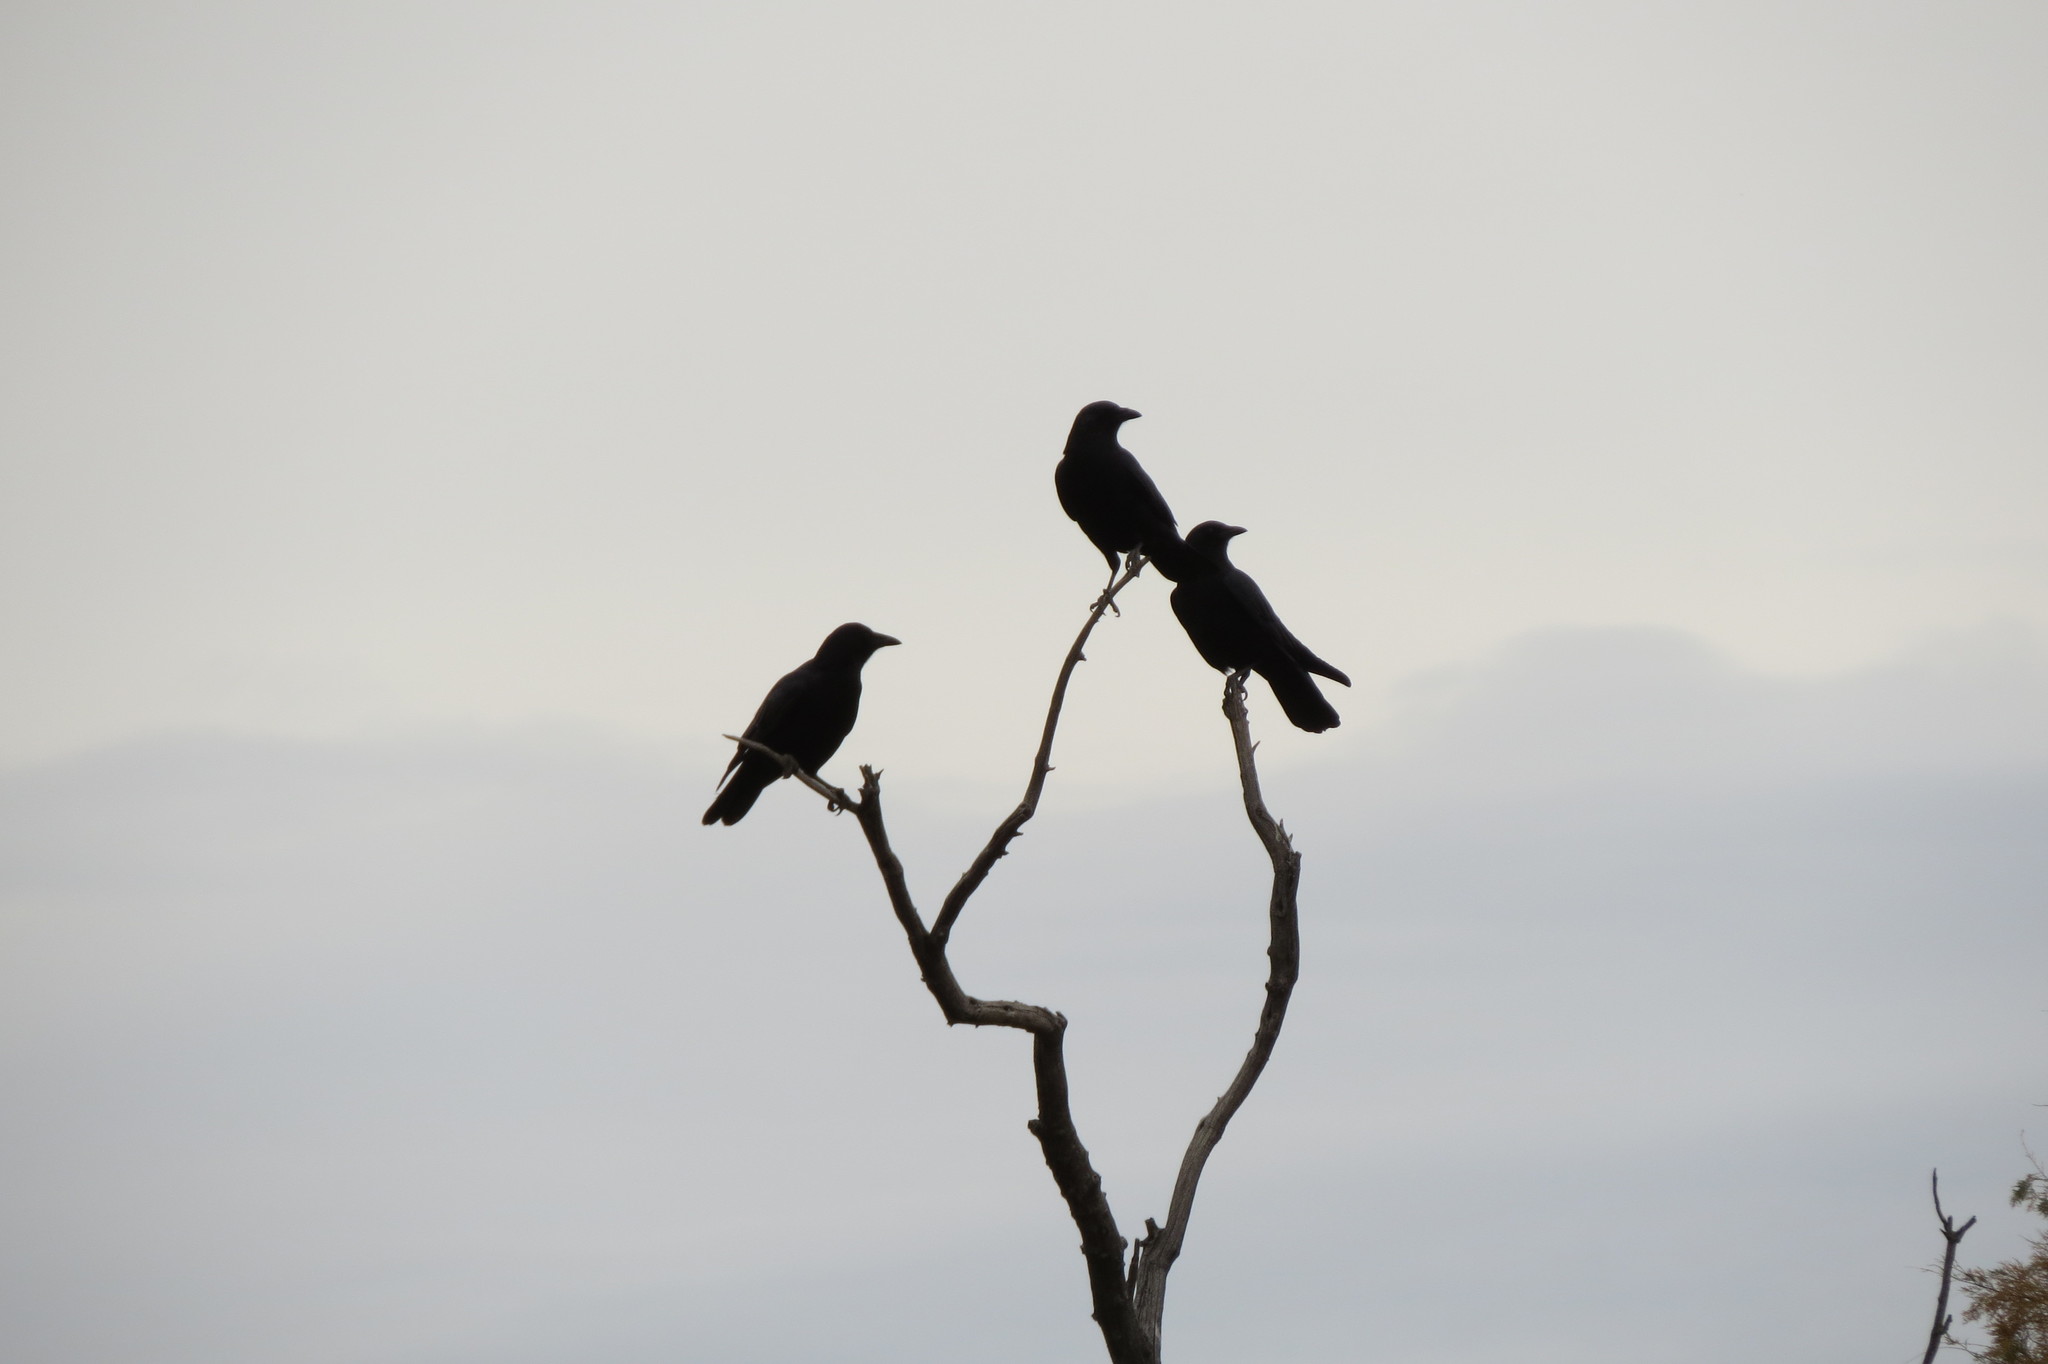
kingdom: Animalia
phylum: Chordata
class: Aves
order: Passeriformes
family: Corvidae
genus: Corvus
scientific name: Corvus brachyrhynchos
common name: American crow
